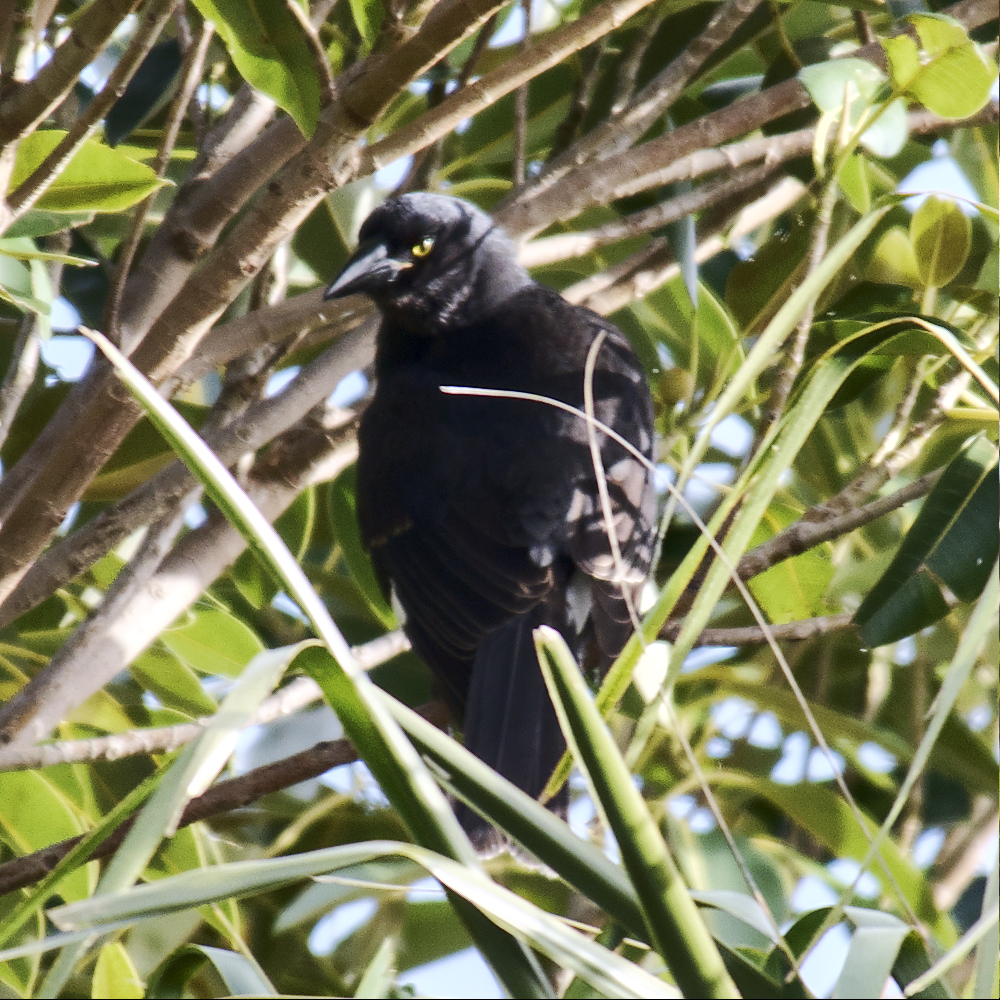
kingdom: Animalia
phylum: Chordata
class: Aves
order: Passeriformes
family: Cracticidae
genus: Strepera
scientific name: Strepera graculina
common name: Pied currawong
